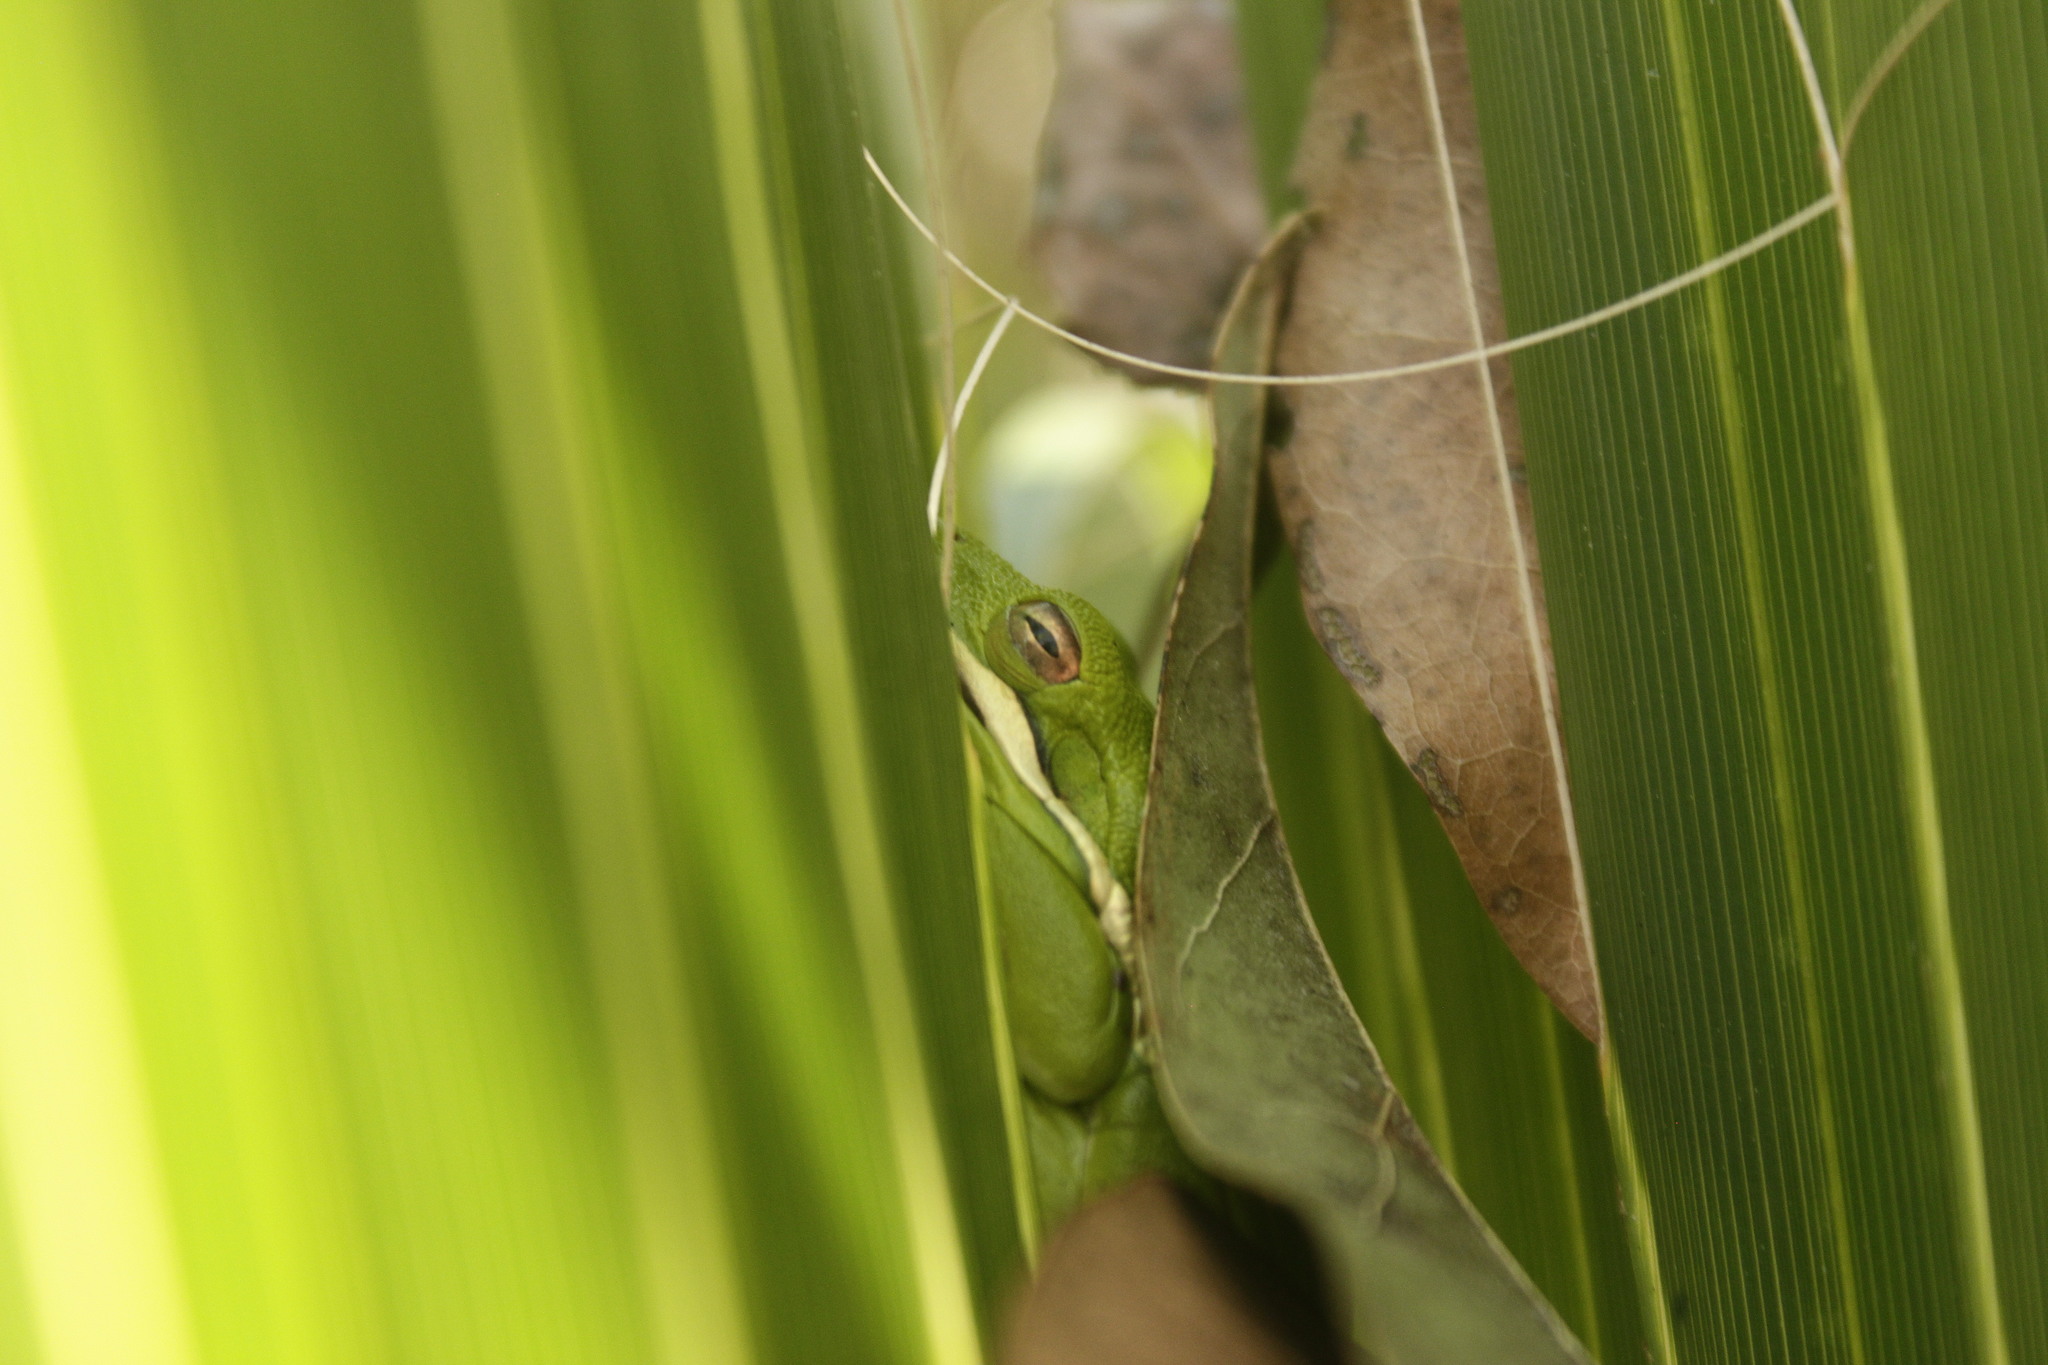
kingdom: Animalia
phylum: Chordata
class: Amphibia
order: Anura
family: Hylidae
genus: Dryophytes
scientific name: Dryophytes cinereus
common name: Green treefrog
